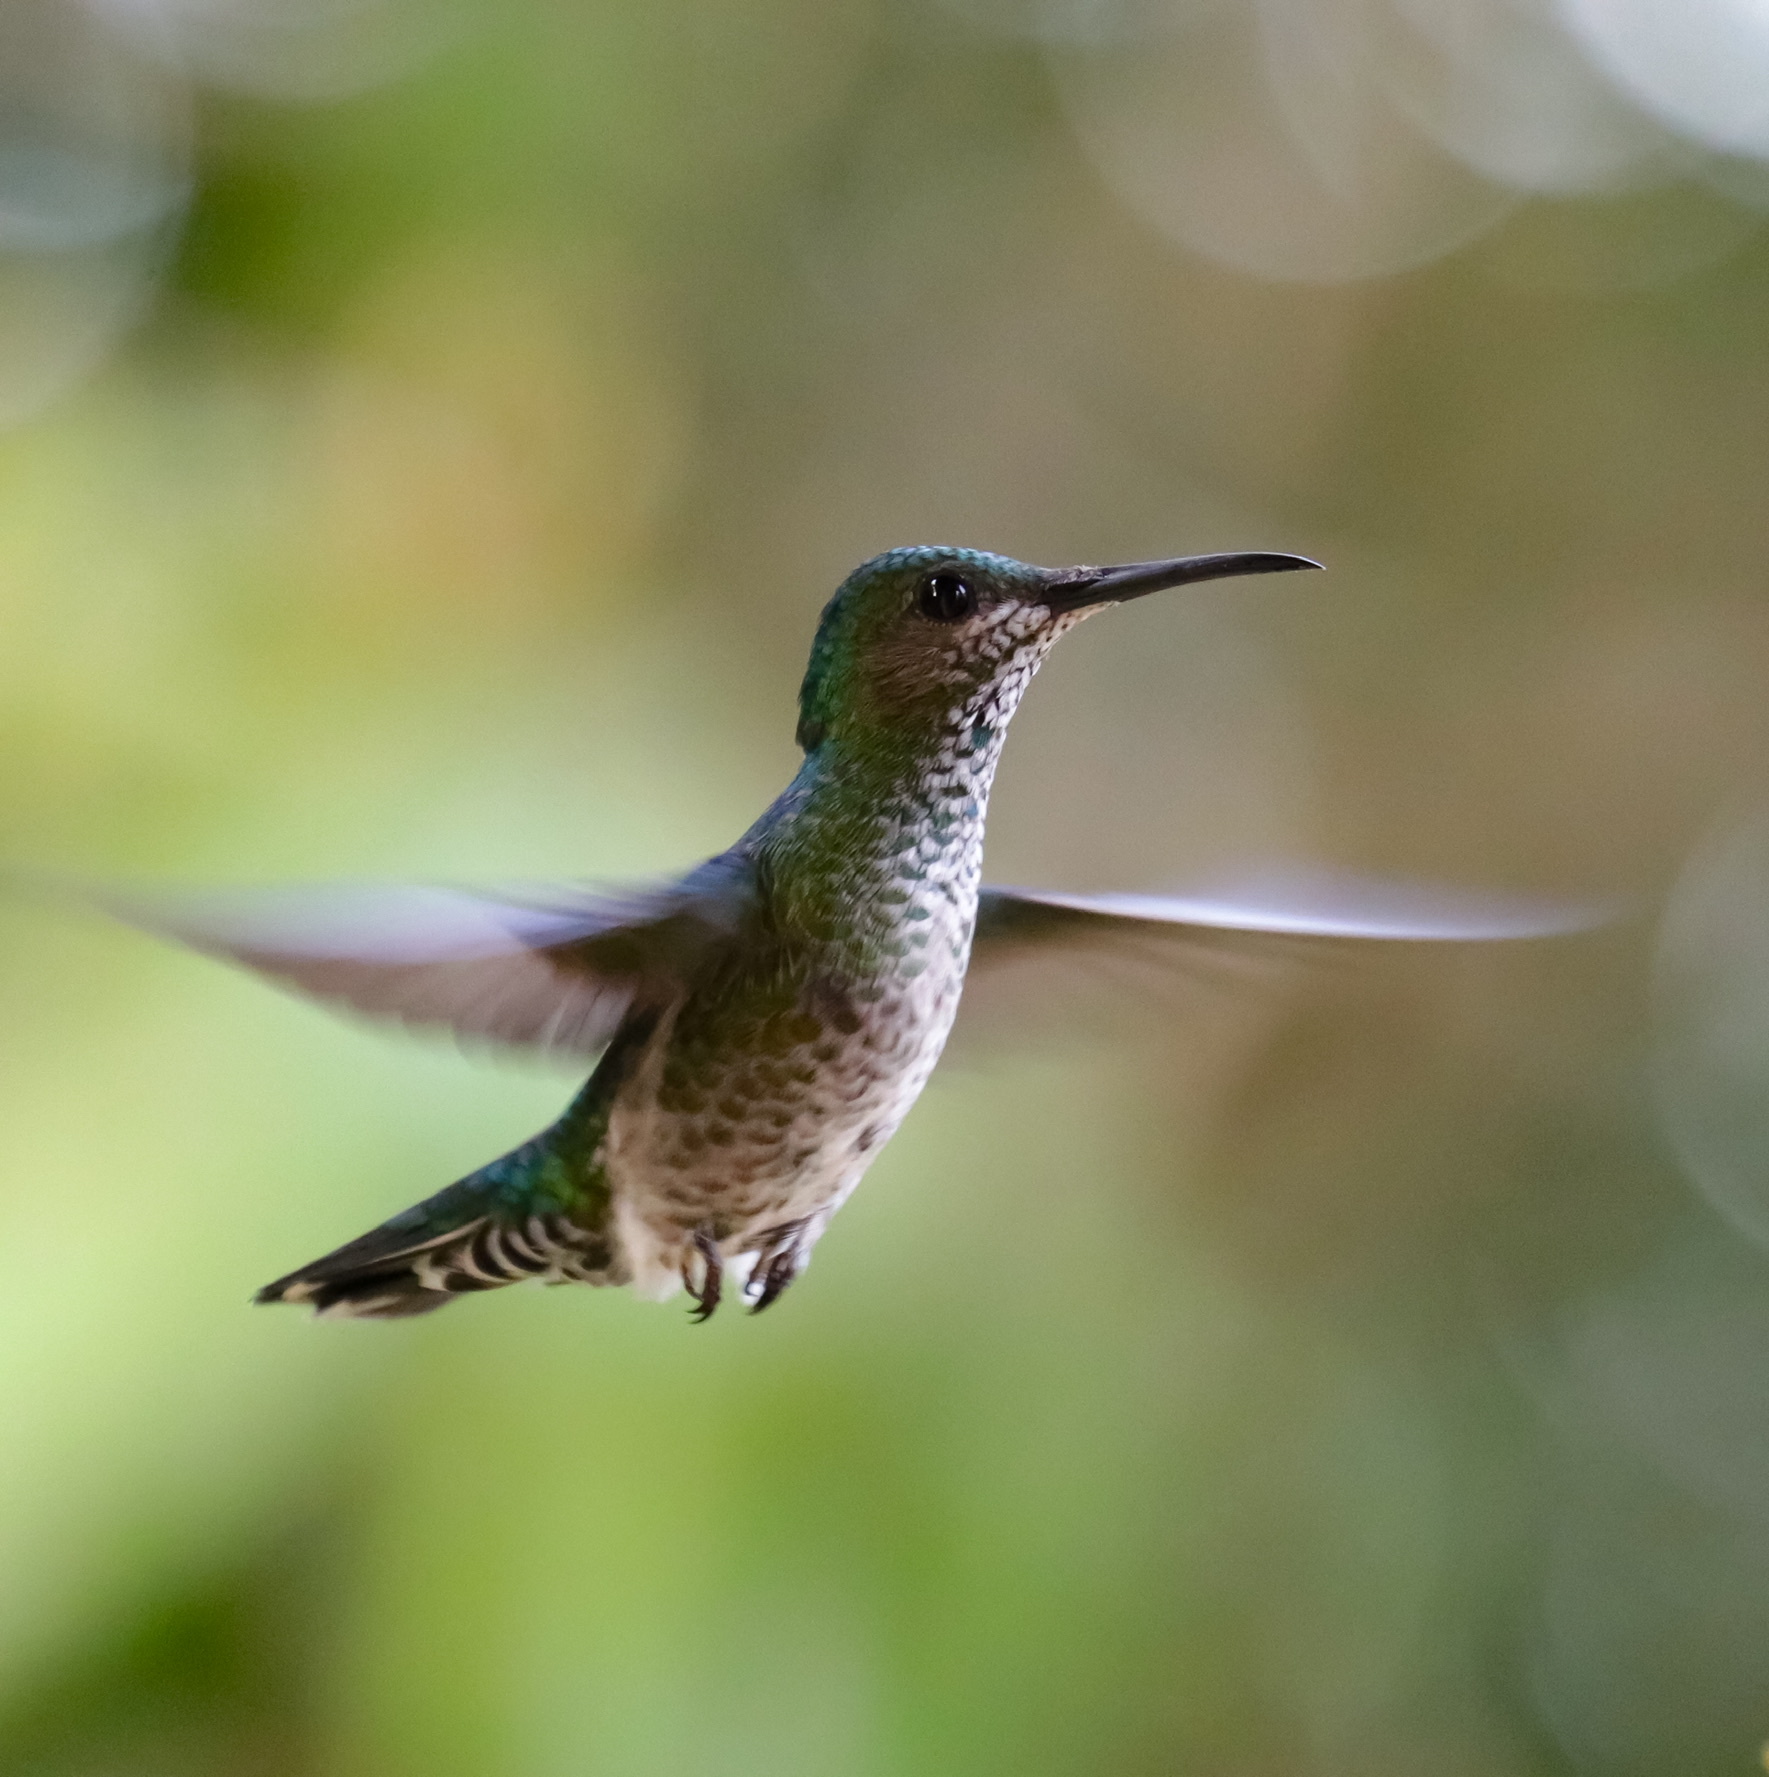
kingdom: Animalia
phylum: Chordata
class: Aves
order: Apodiformes
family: Trochilidae
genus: Florisuga
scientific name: Florisuga mellivora
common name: White-necked jacobin
